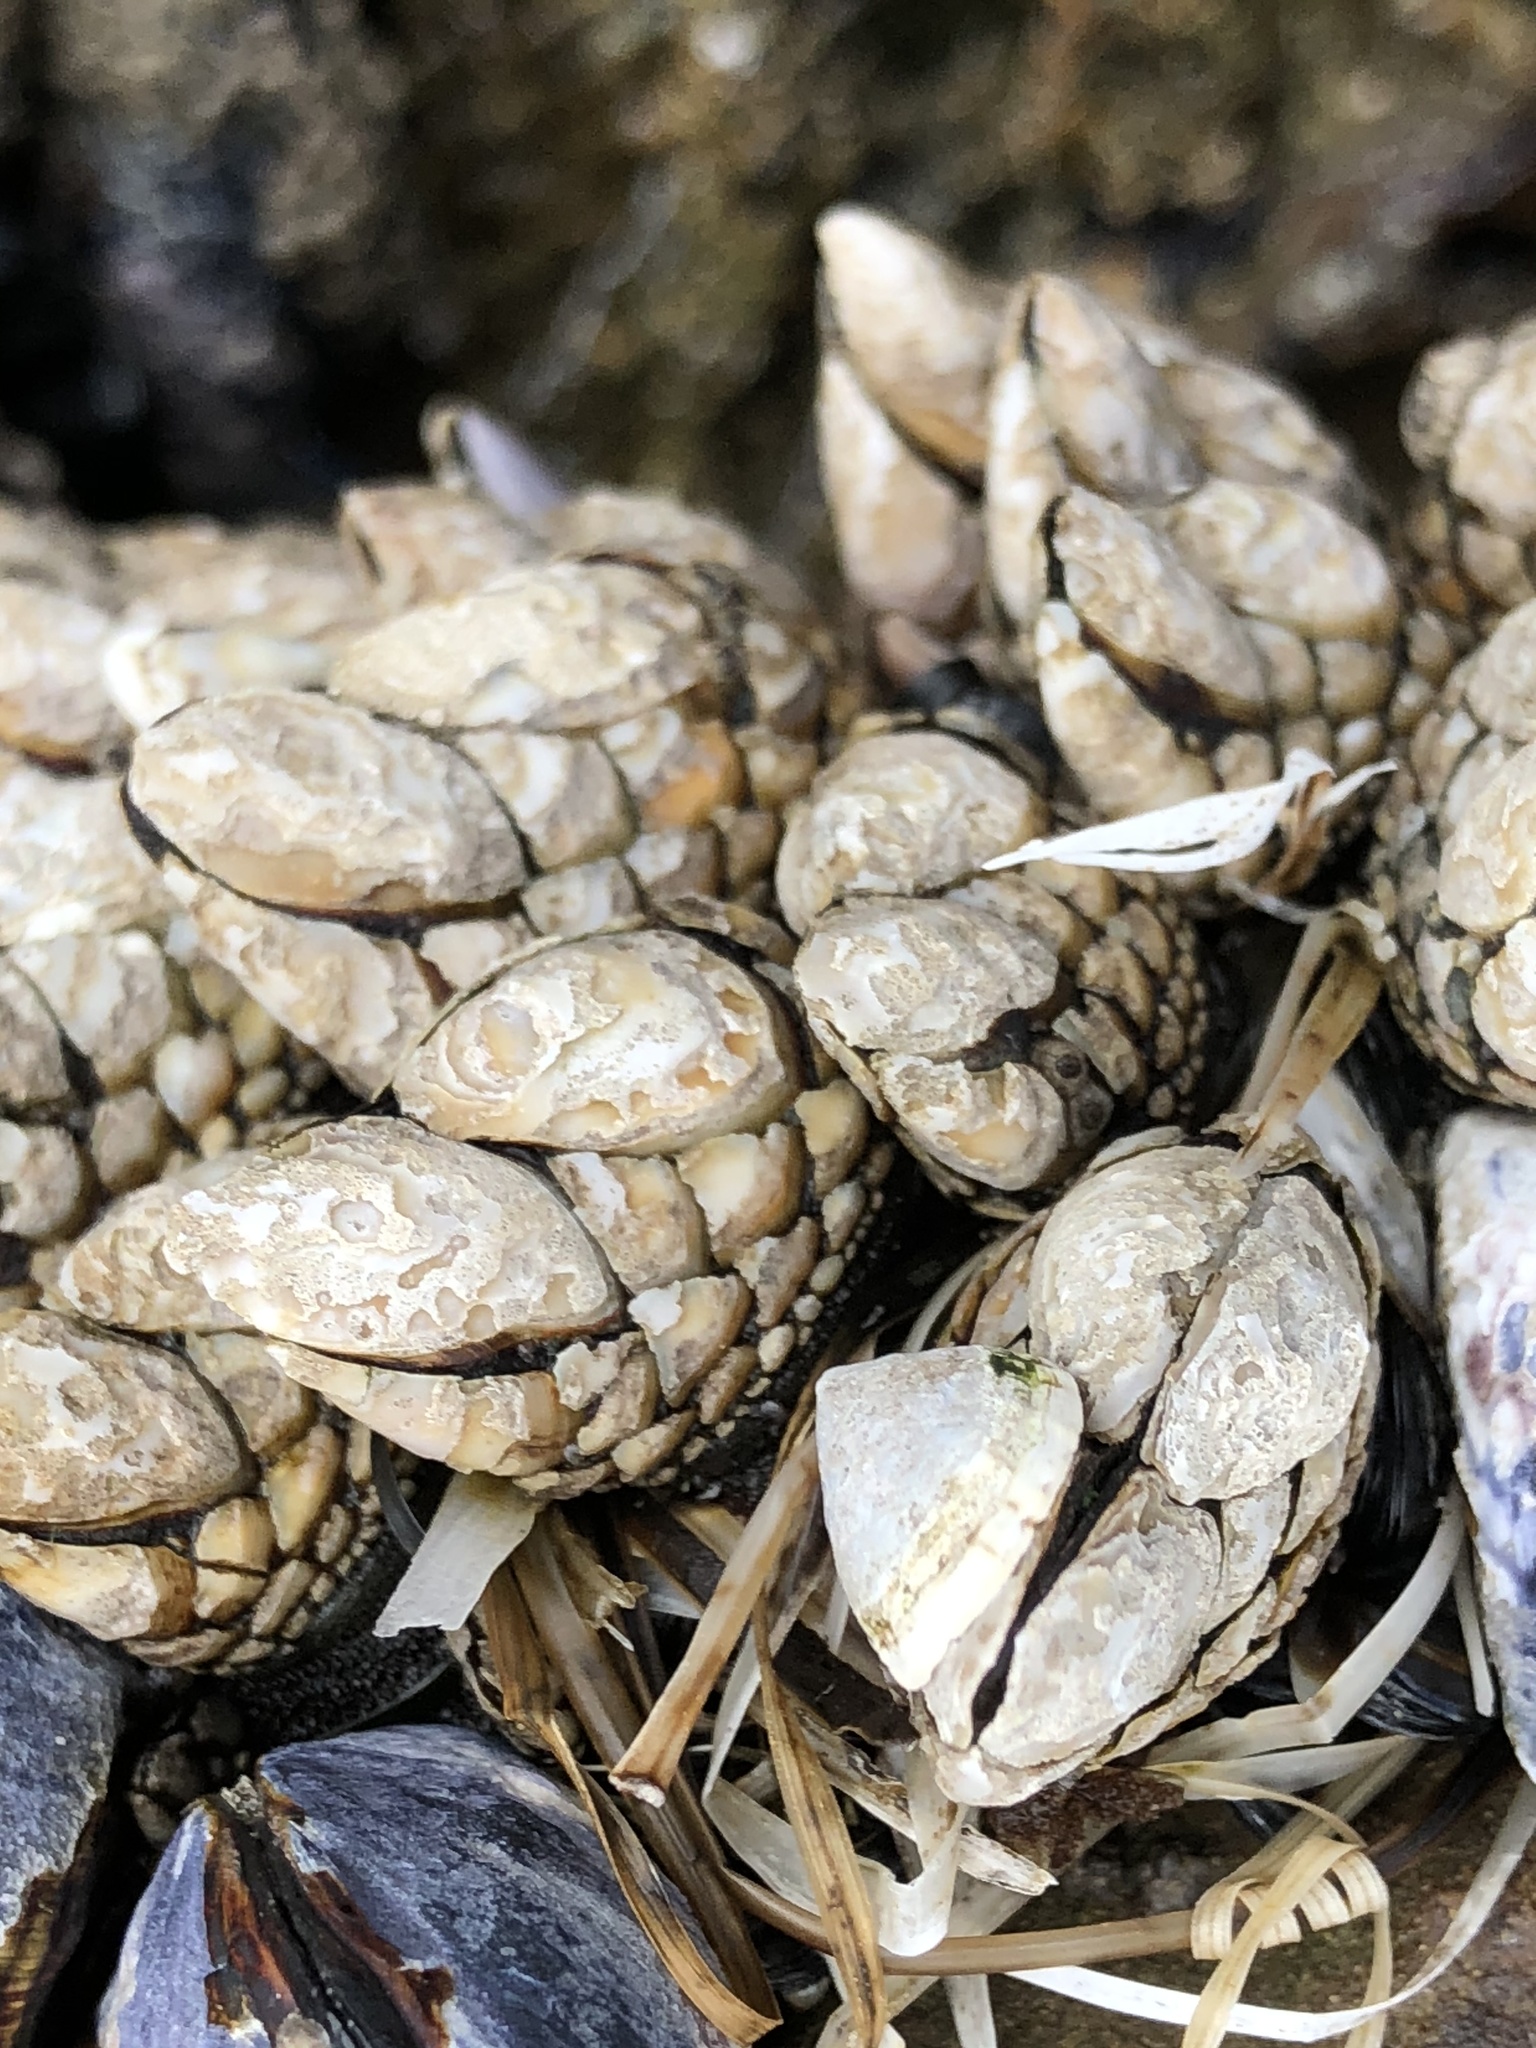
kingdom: Animalia
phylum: Arthropoda
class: Maxillopoda
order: Pedunculata
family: Pollicipedidae
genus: Pollicipes
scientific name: Pollicipes polymerus
